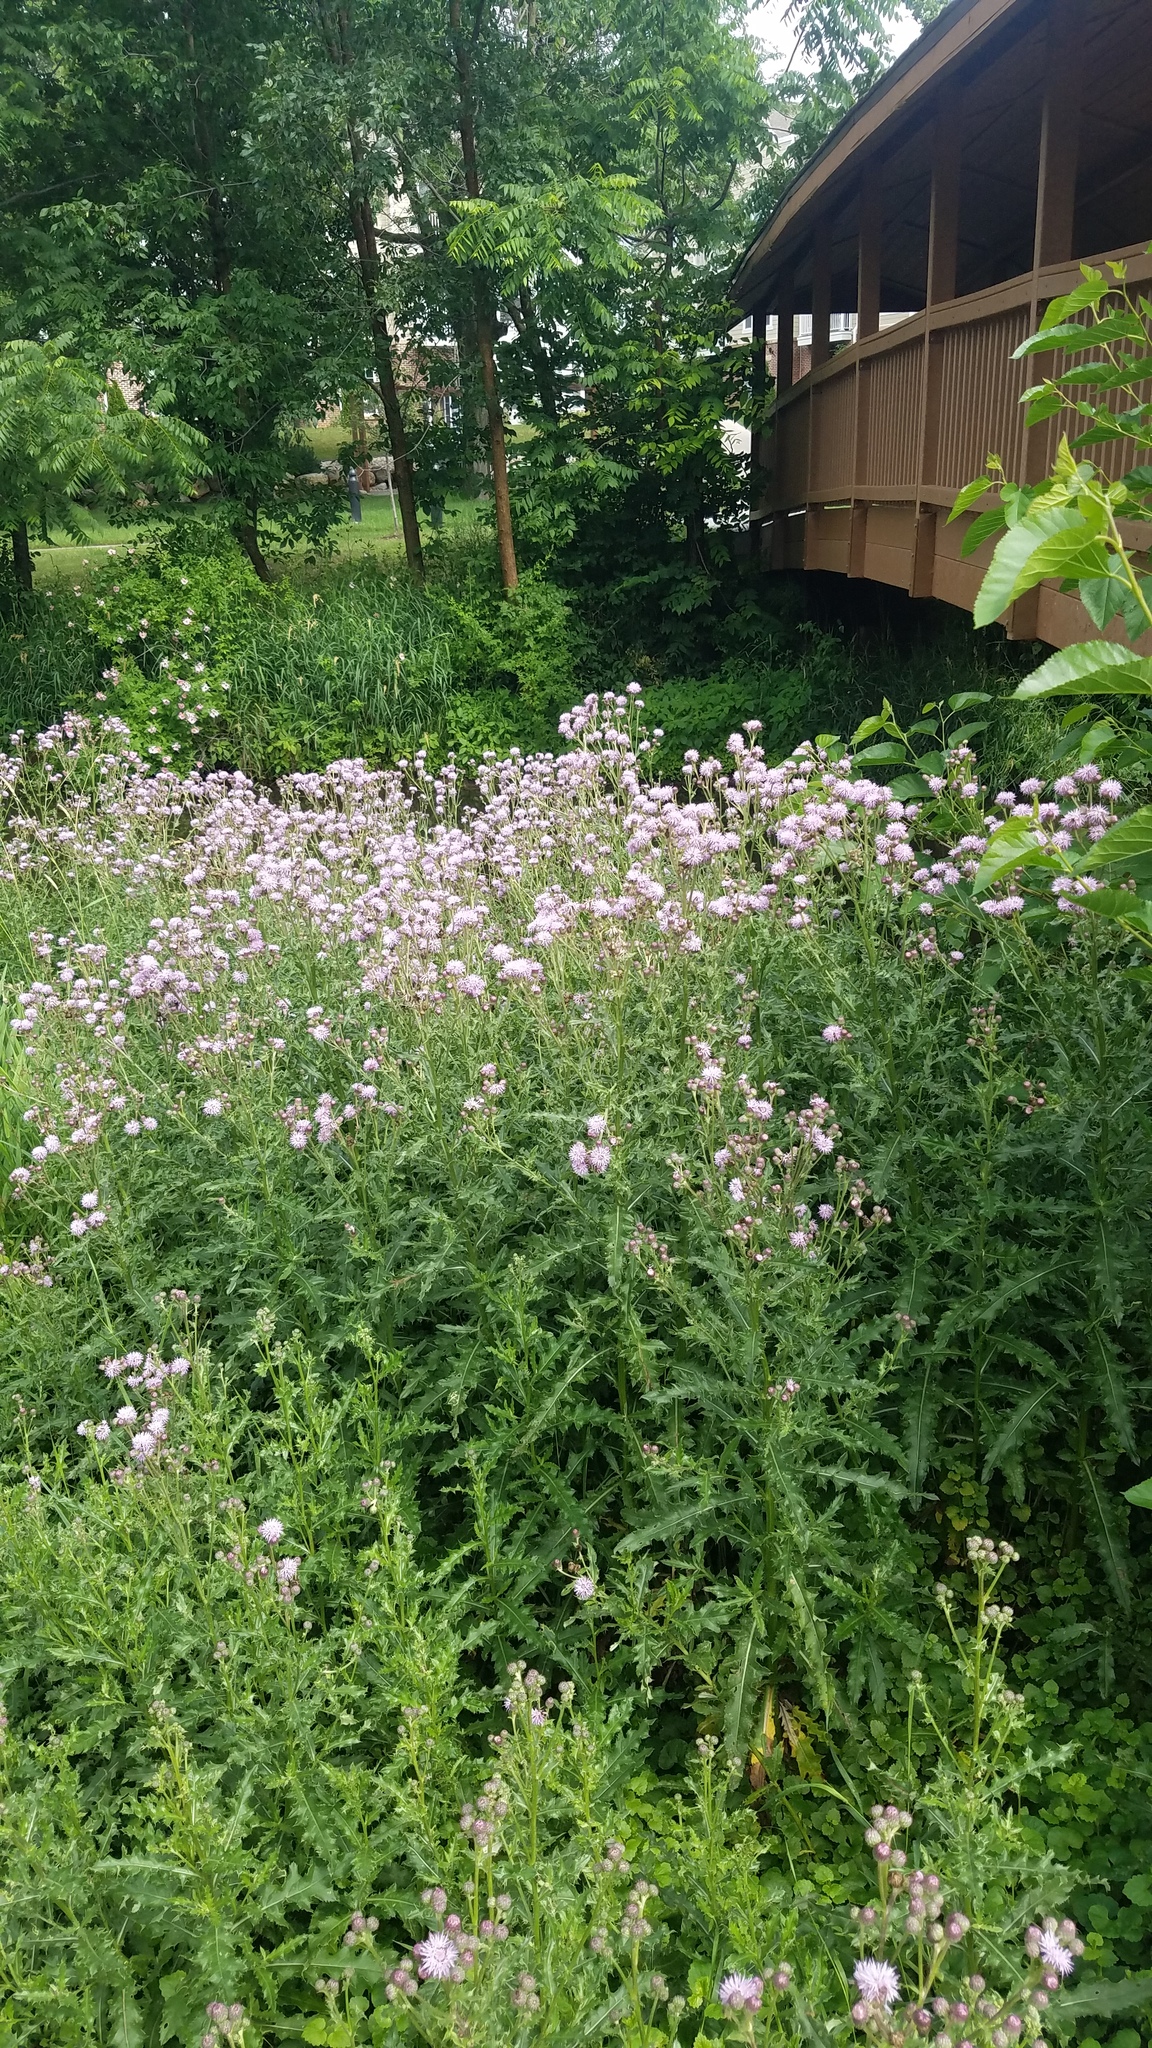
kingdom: Plantae
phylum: Tracheophyta
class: Magnoliopsida
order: Asterales
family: Asteraceae
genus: Cirsium
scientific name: Cirsium arvense
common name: Creeping thistle
